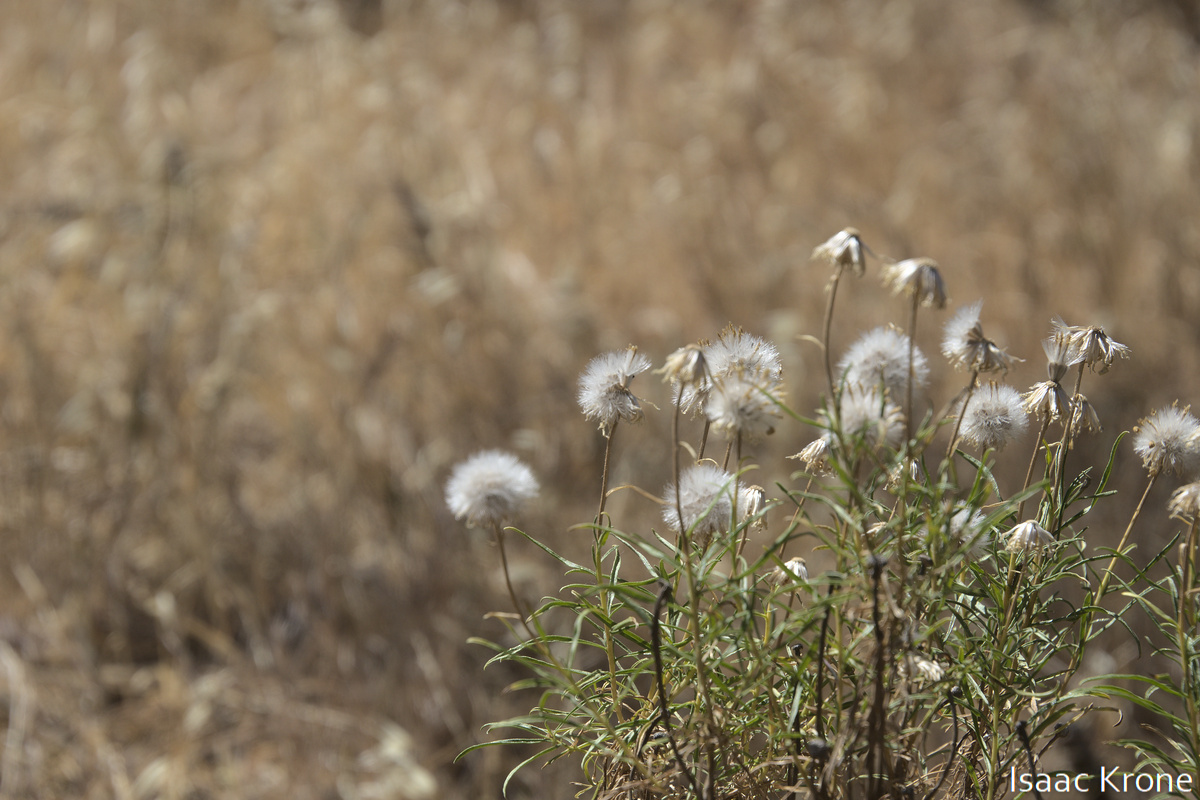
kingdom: Plantae
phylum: Tracheophyta
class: Magnoliopsida
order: Asterales
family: Asteraceae
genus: Ericameria
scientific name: Ericameria linearifolia
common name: Interior goldenbush
